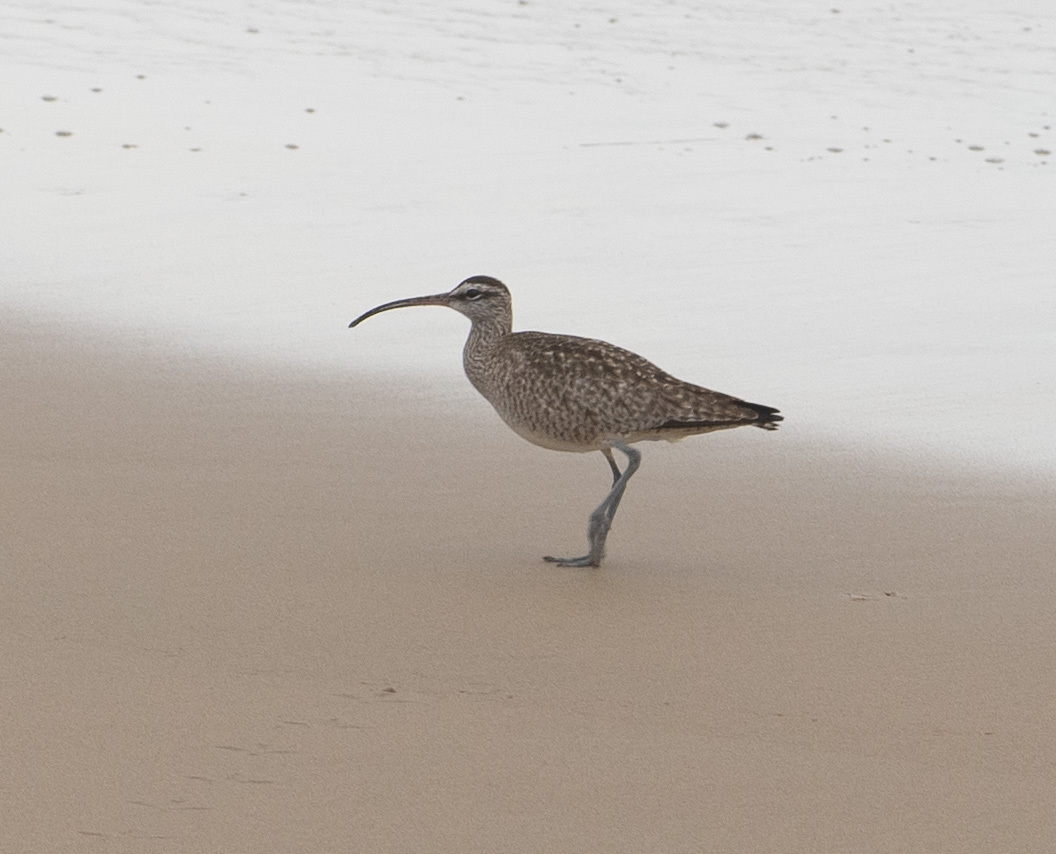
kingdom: Animalia
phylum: Chordata
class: Aves
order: Charadriiformes
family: Scolopacidae
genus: Numenius
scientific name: Numenius phaeopus
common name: Whimbrel
